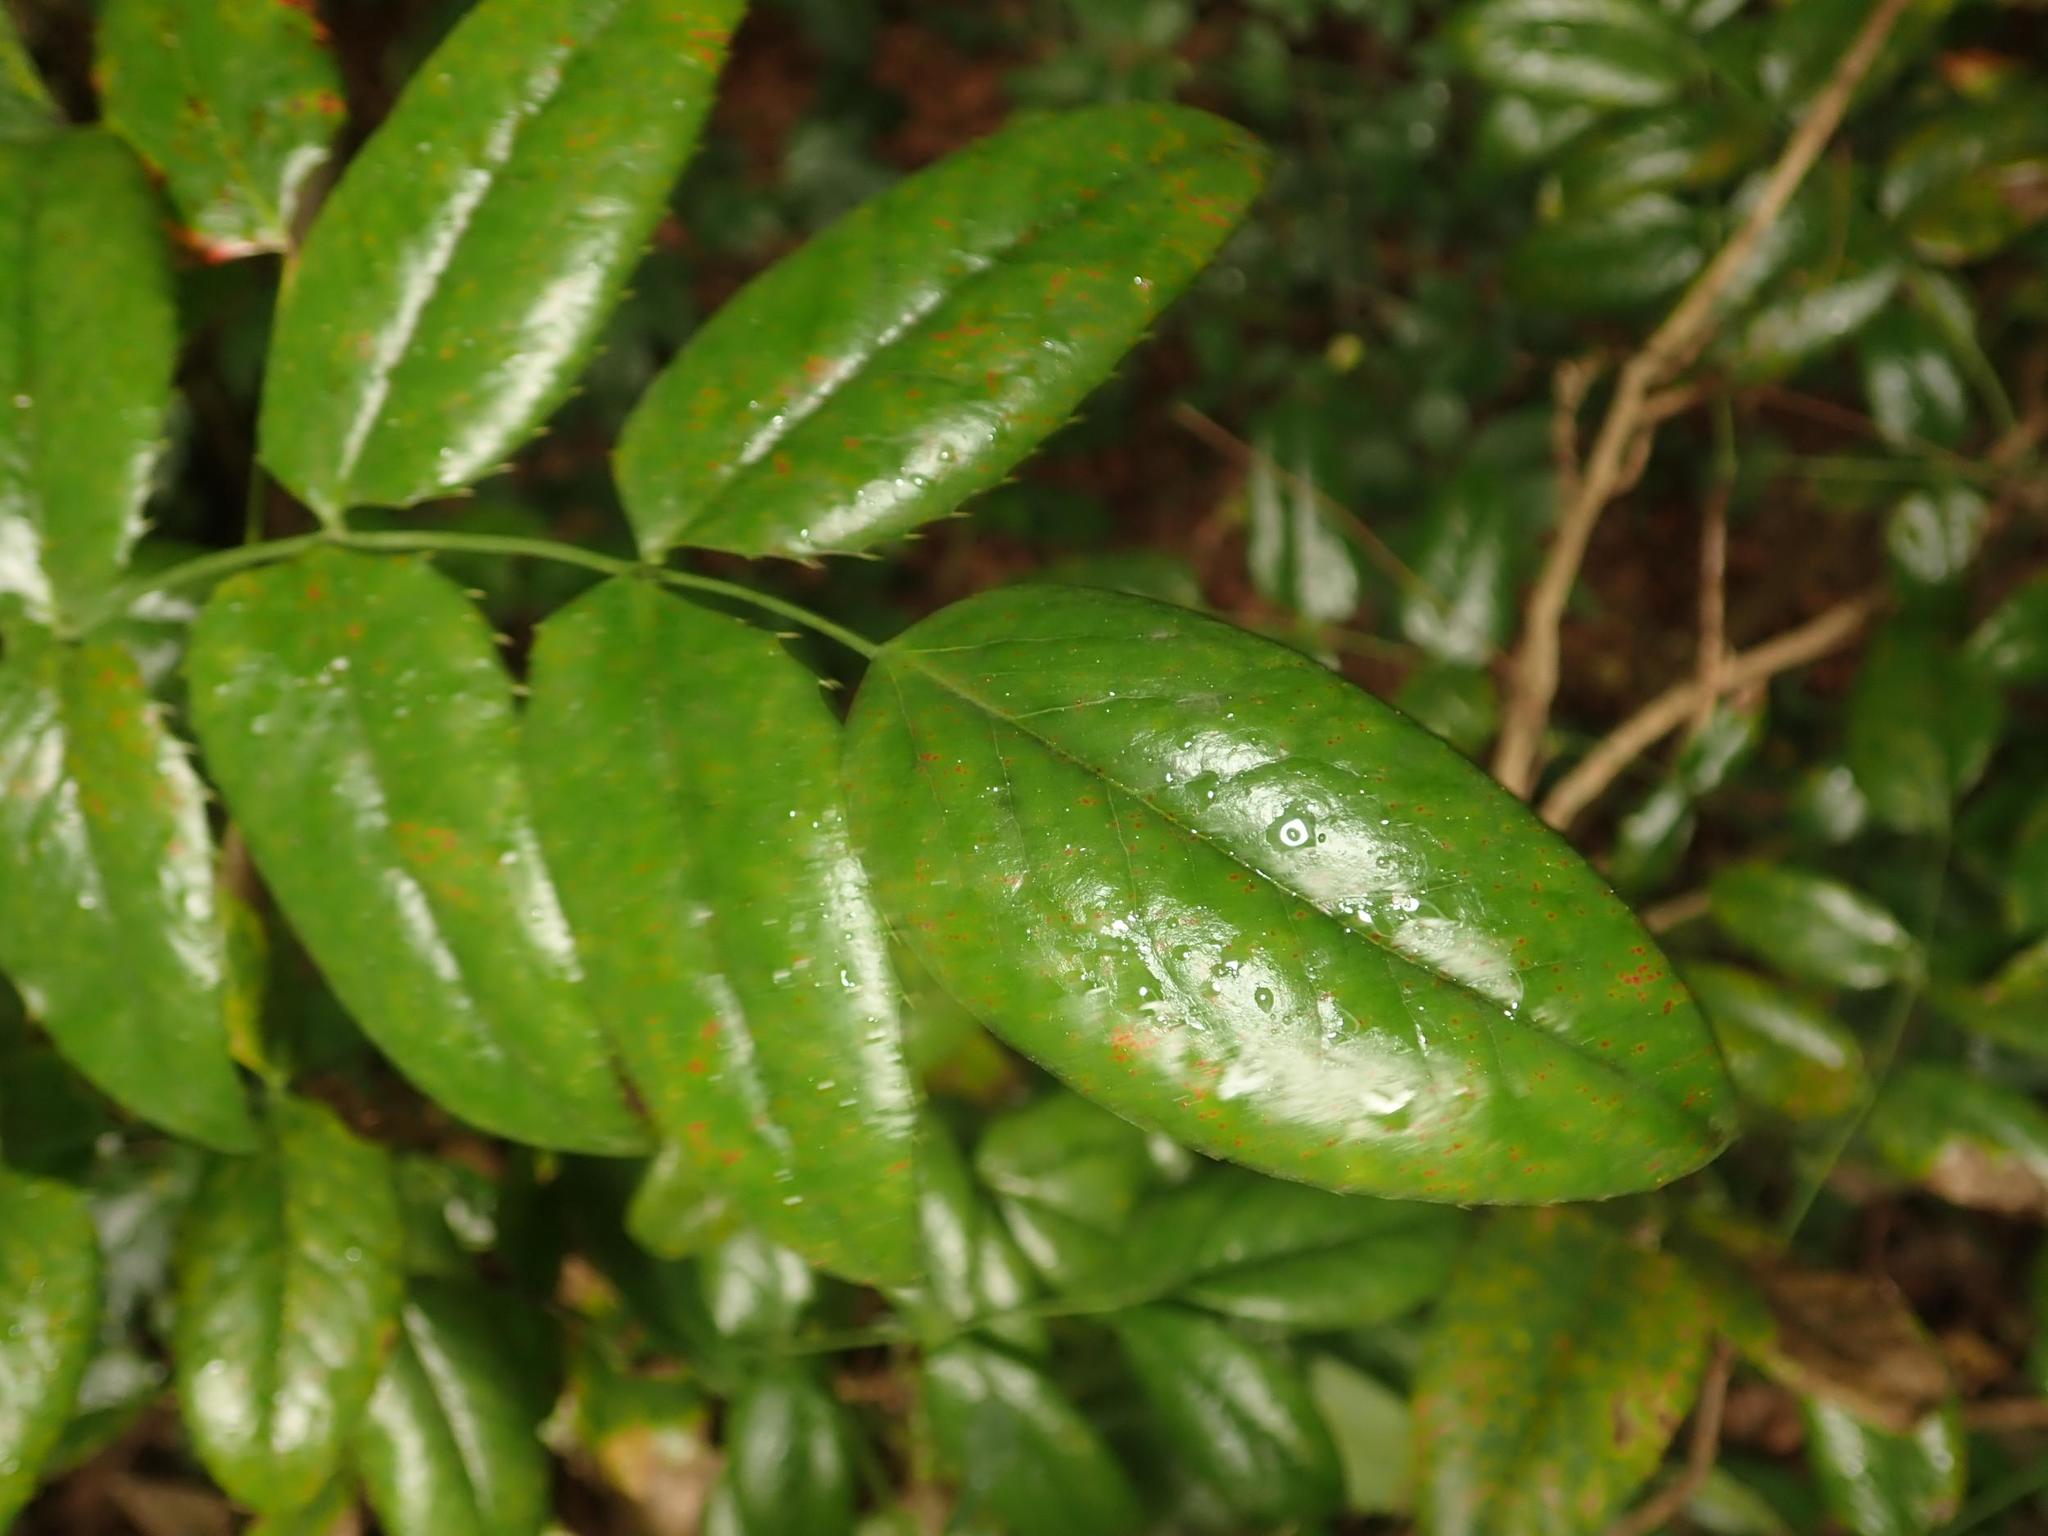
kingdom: Plantae
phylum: Tracheophyta
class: Magnoliopsida
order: Ranunculales
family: Berberidaceae
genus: Mahonia
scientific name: Mahonia aquifolium
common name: Oregon-grape
